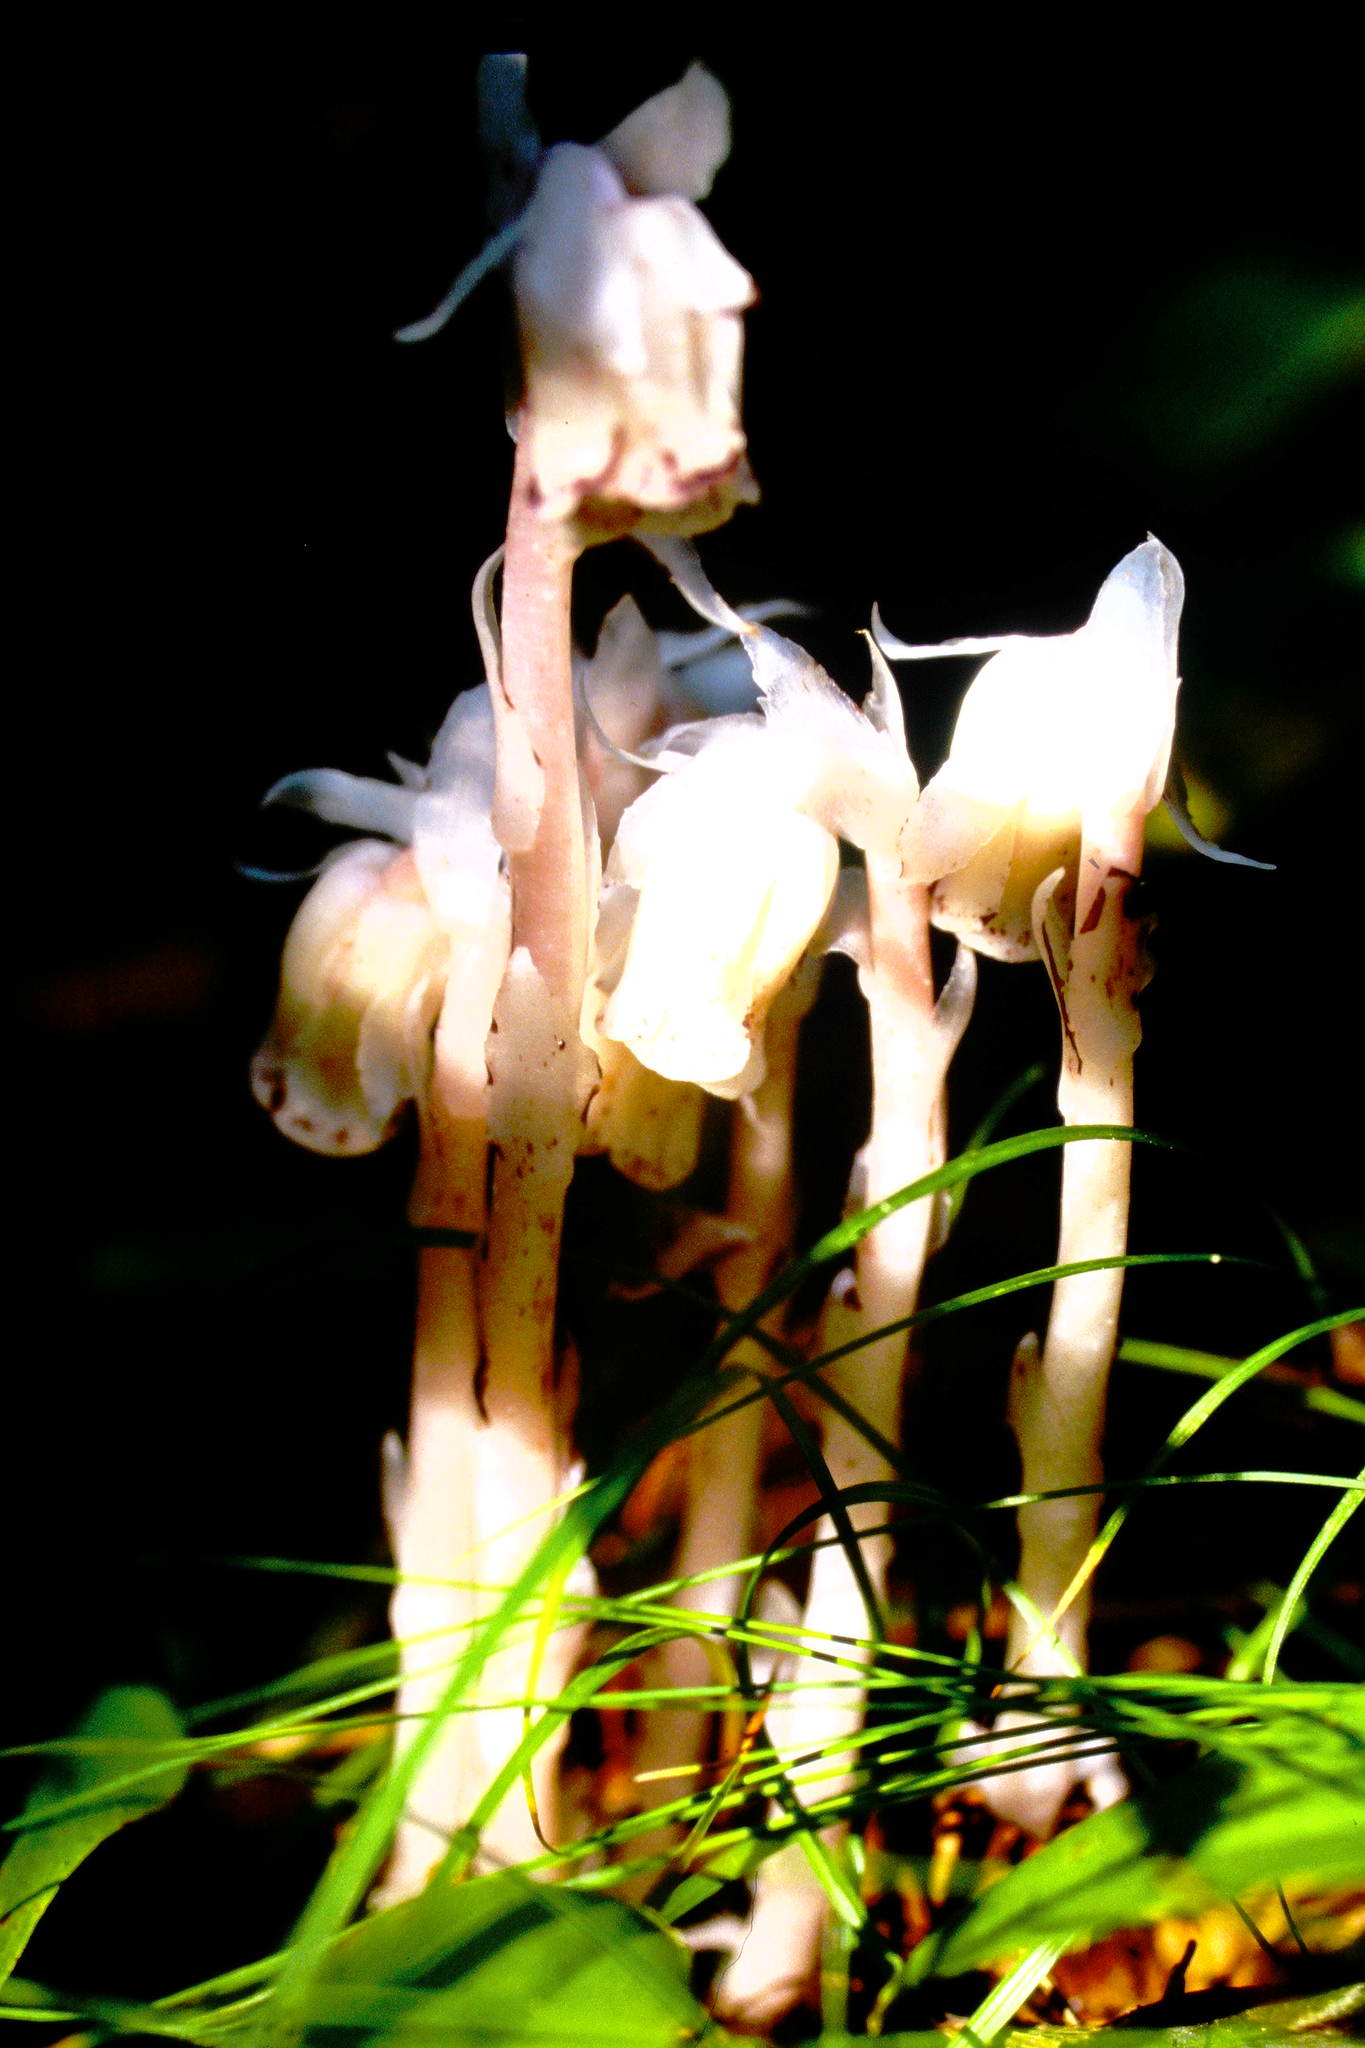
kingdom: Plantae
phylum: Tracheophyta
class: Magnoliopsida
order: Ericales
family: Ericaceae
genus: Monotropa
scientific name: Monotropa uniflora
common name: Convulsion root
